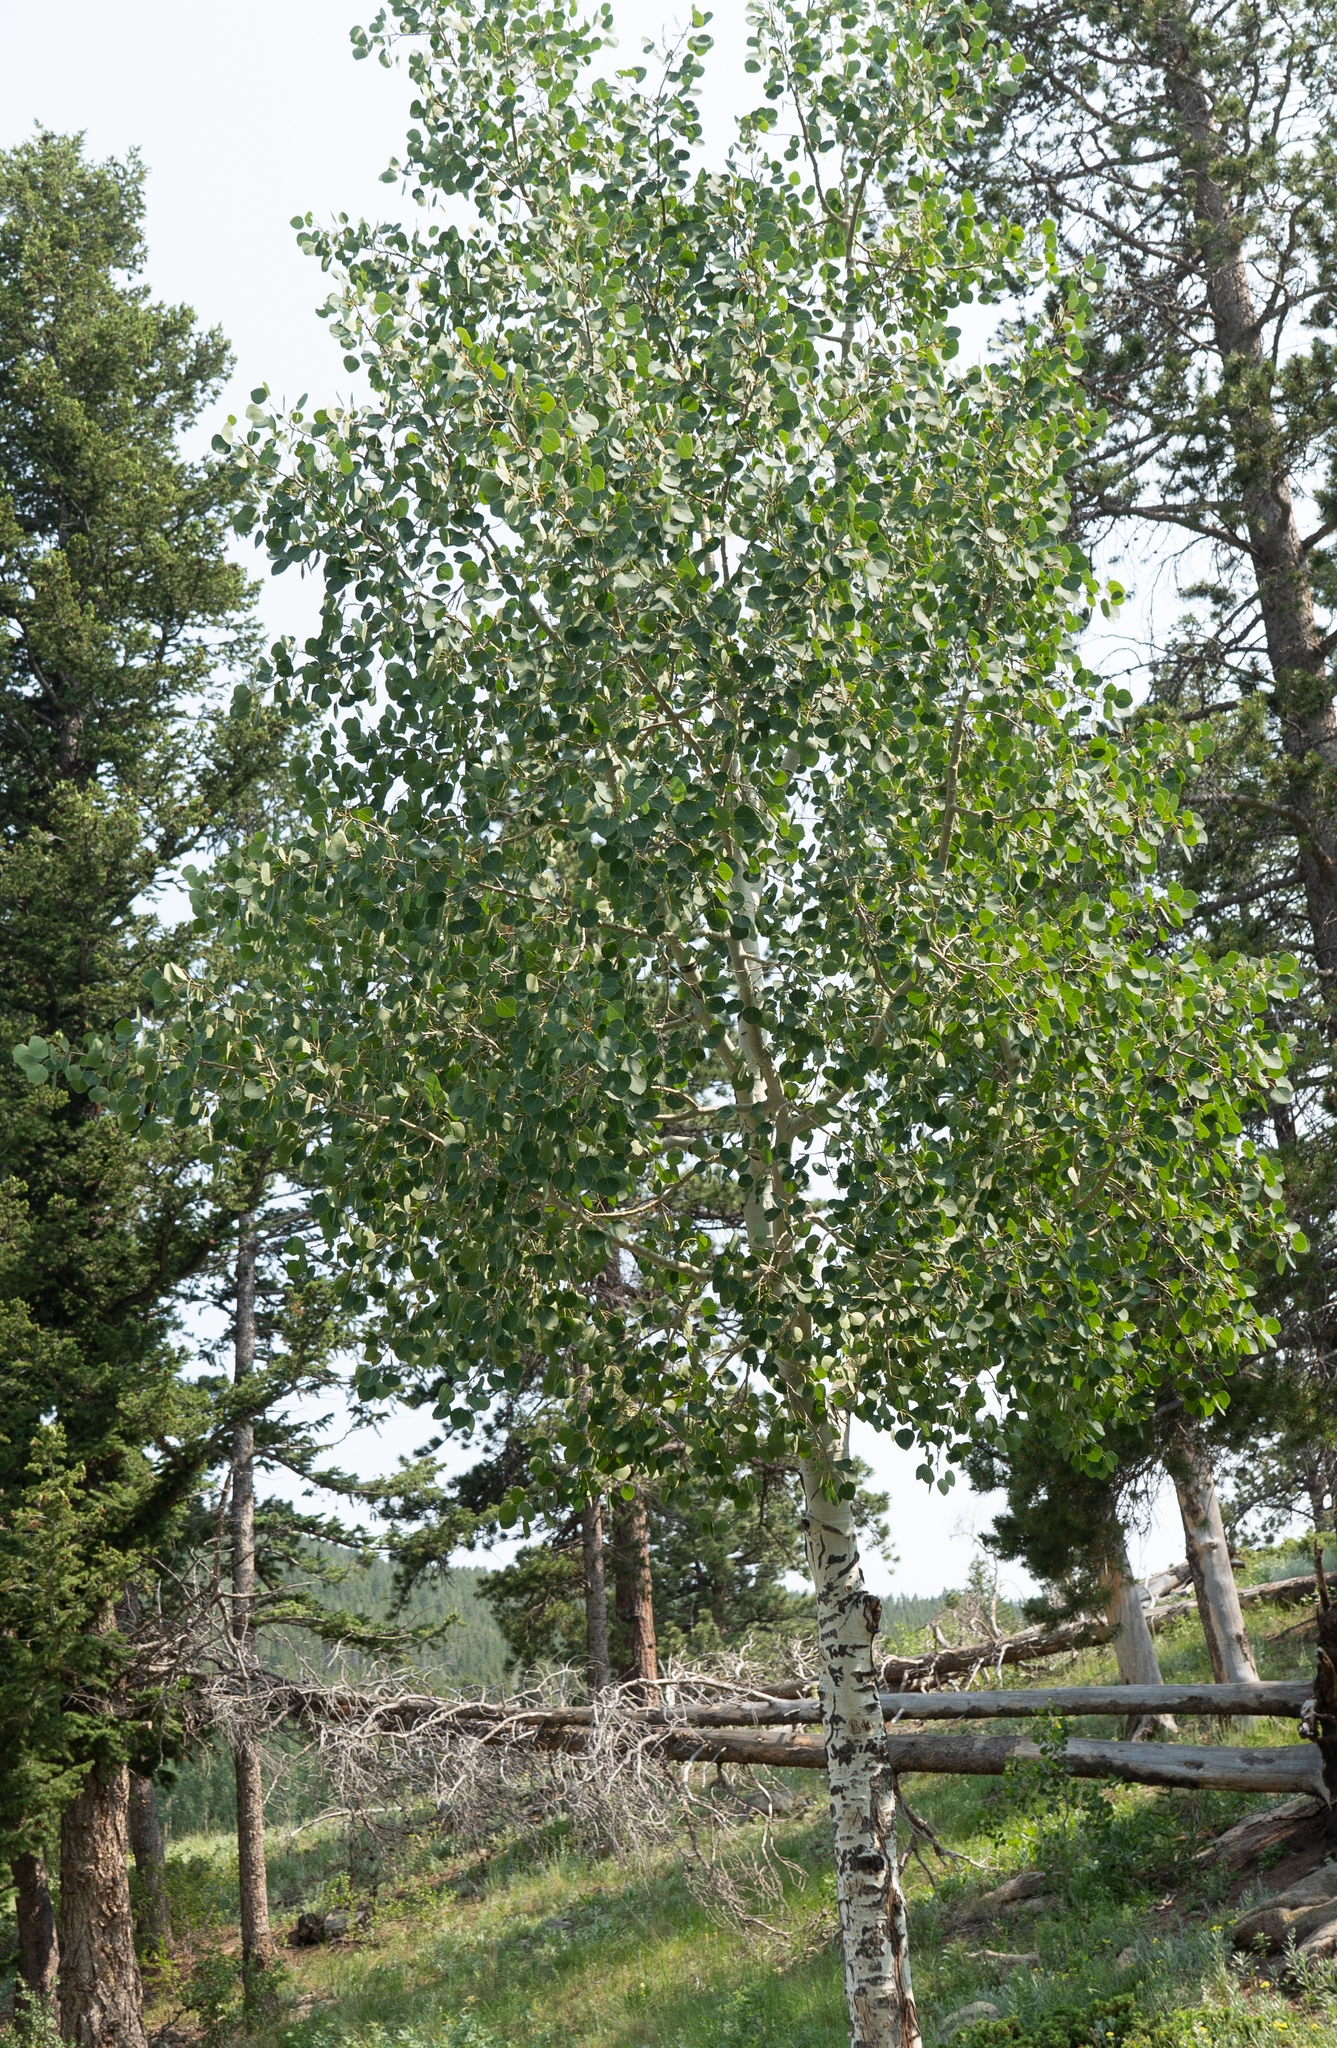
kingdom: Plantae
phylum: Tracheophyta
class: Magnoliopsida
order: Malpighiales
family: Salicaceae
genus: Populus
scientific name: Populus tremuloides
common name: Quaking aspen
